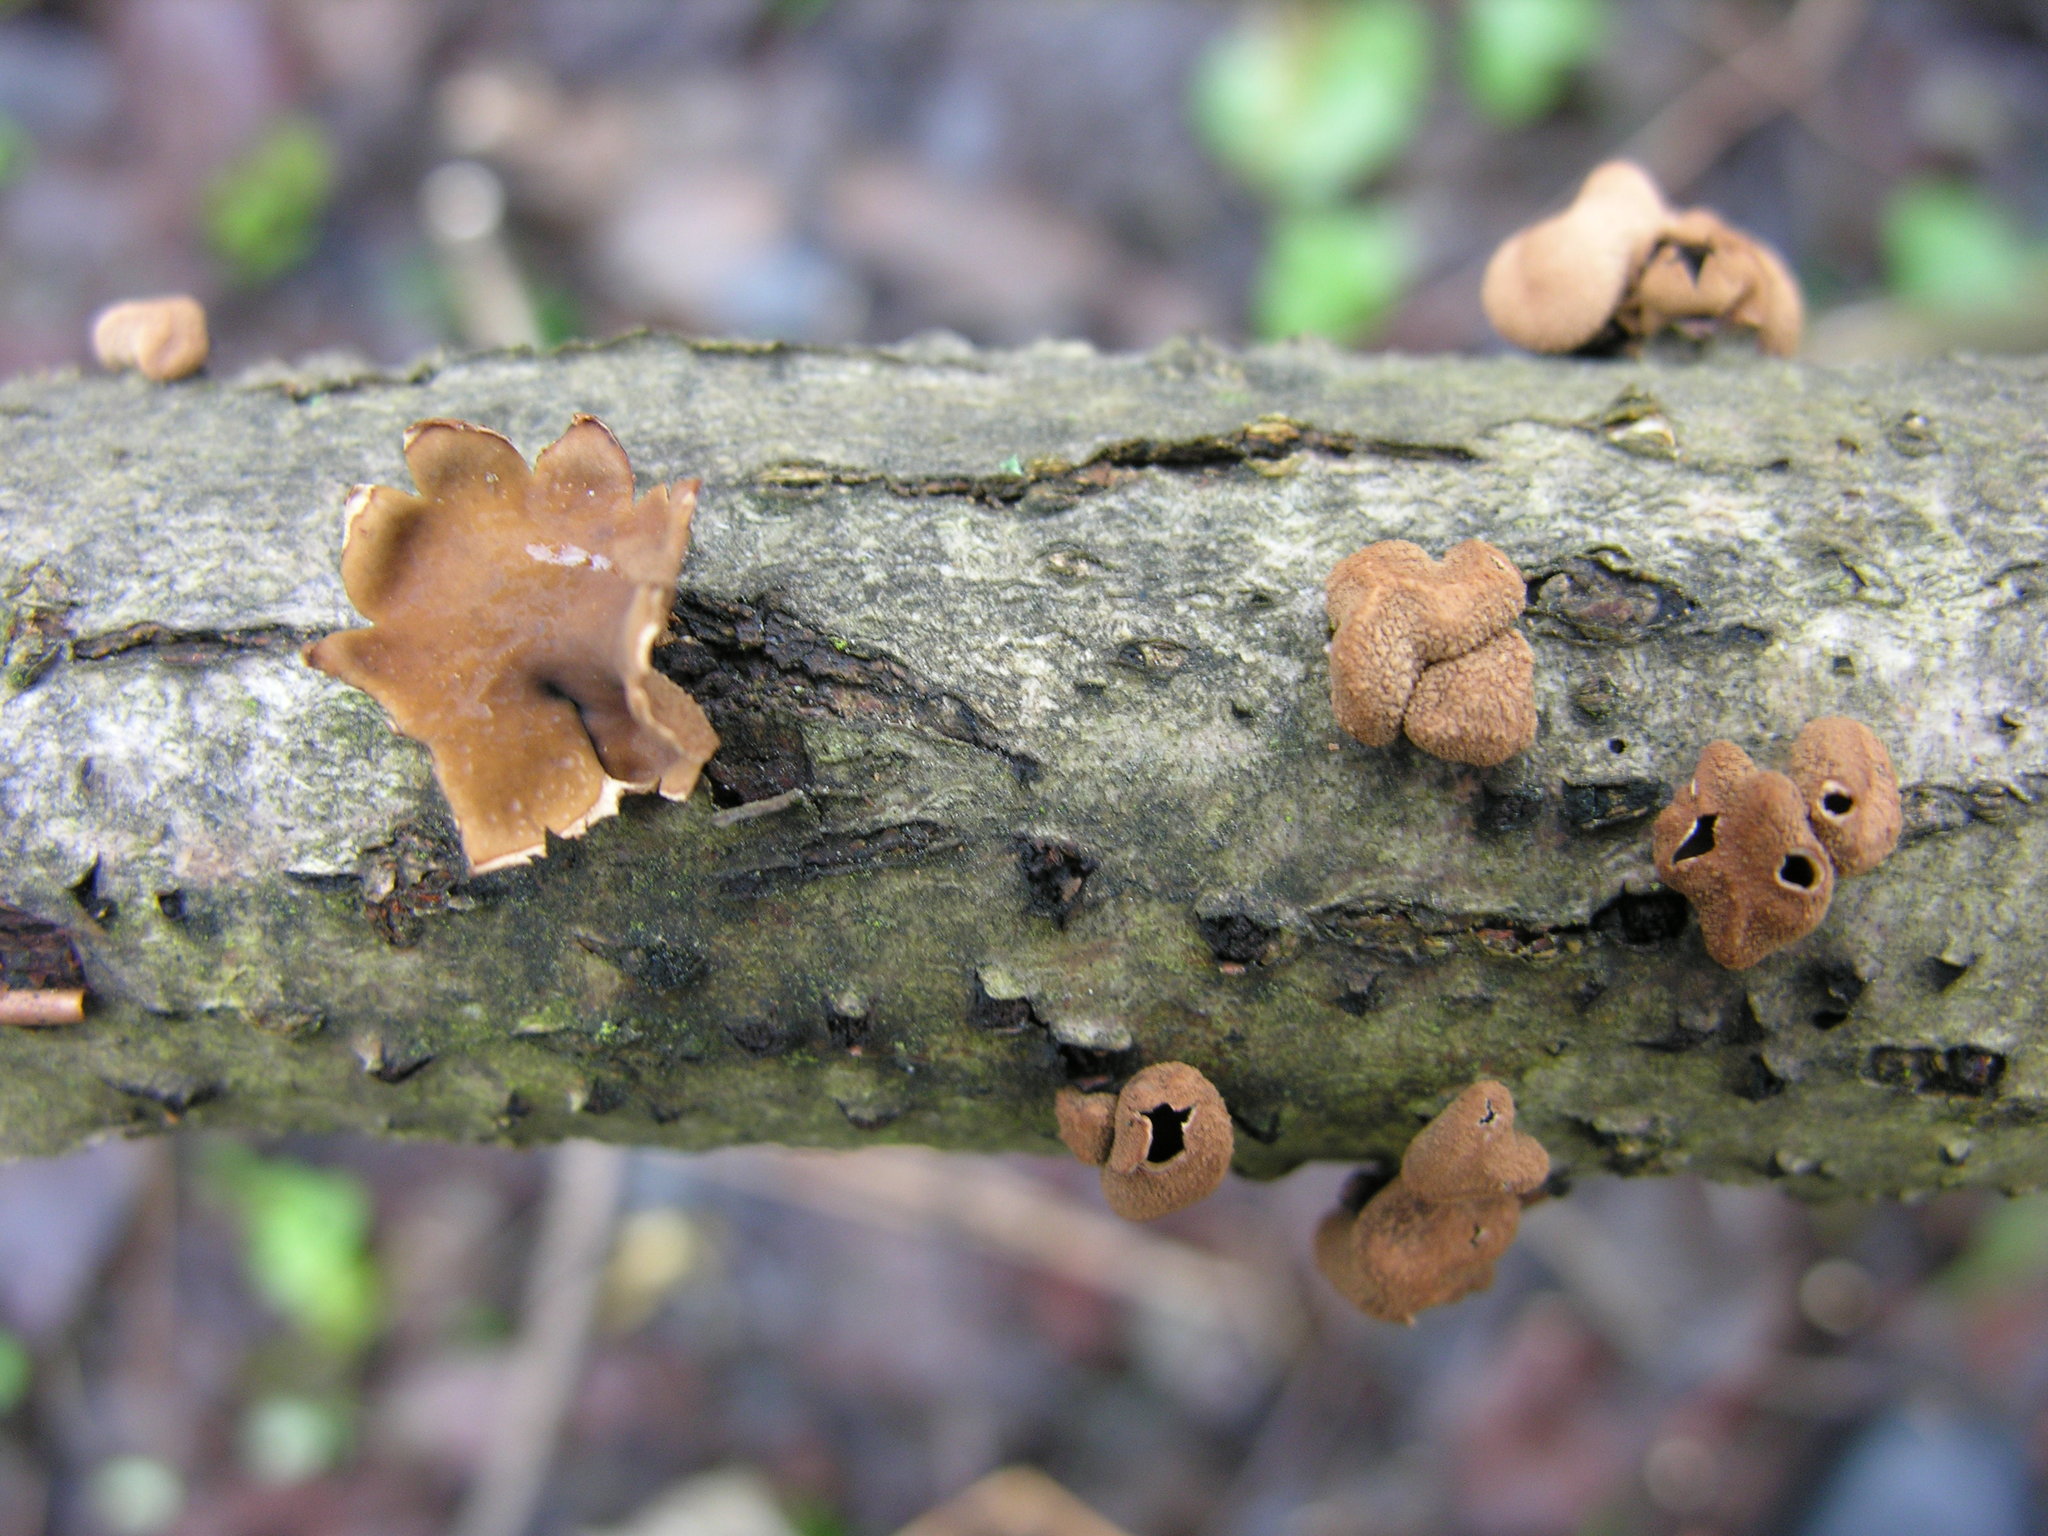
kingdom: Fungi
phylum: Ascomycota
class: Leotiomycetes
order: Helotiales
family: Cenangiaceae
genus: Encoelia
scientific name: Encoelia furfuracea
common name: Spring hazelcup
